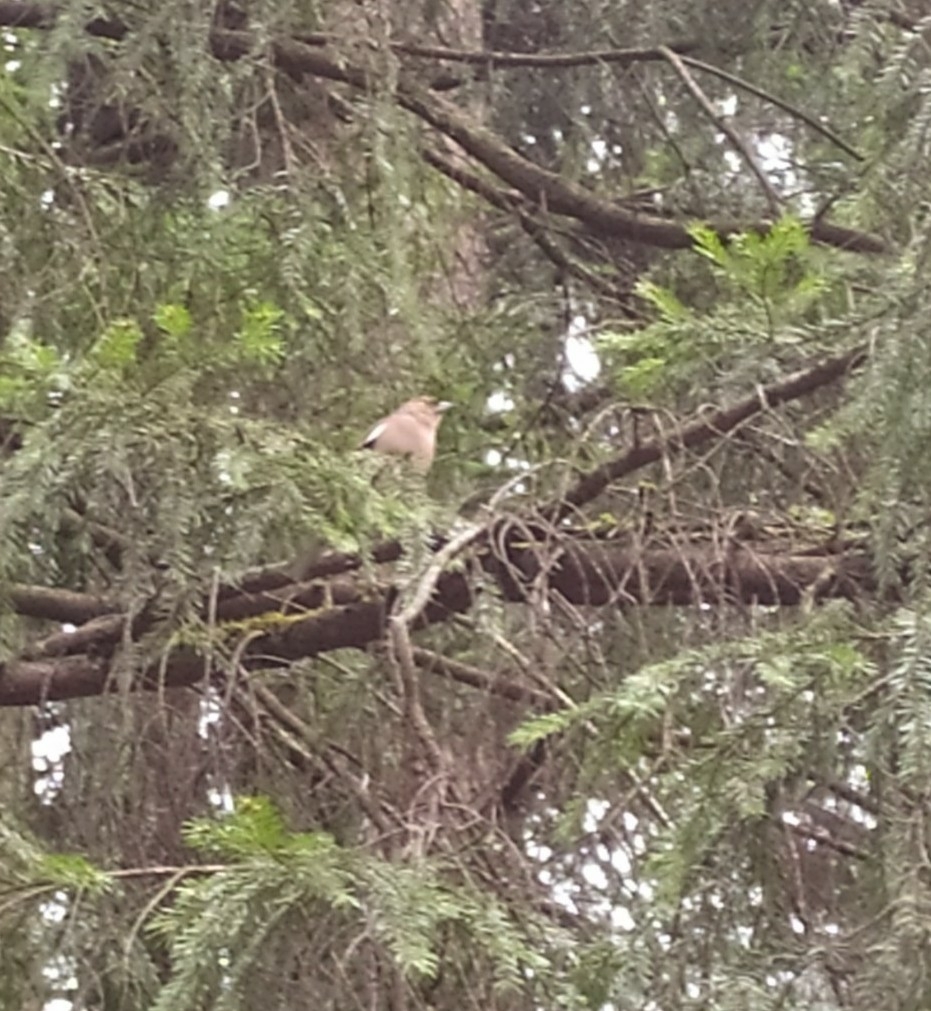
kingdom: Animalia
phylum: Chordata
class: Aves
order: Passeriformes
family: Fringillidae
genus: Fringilla
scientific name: Fringilla coelebs
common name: Common chaffinch
